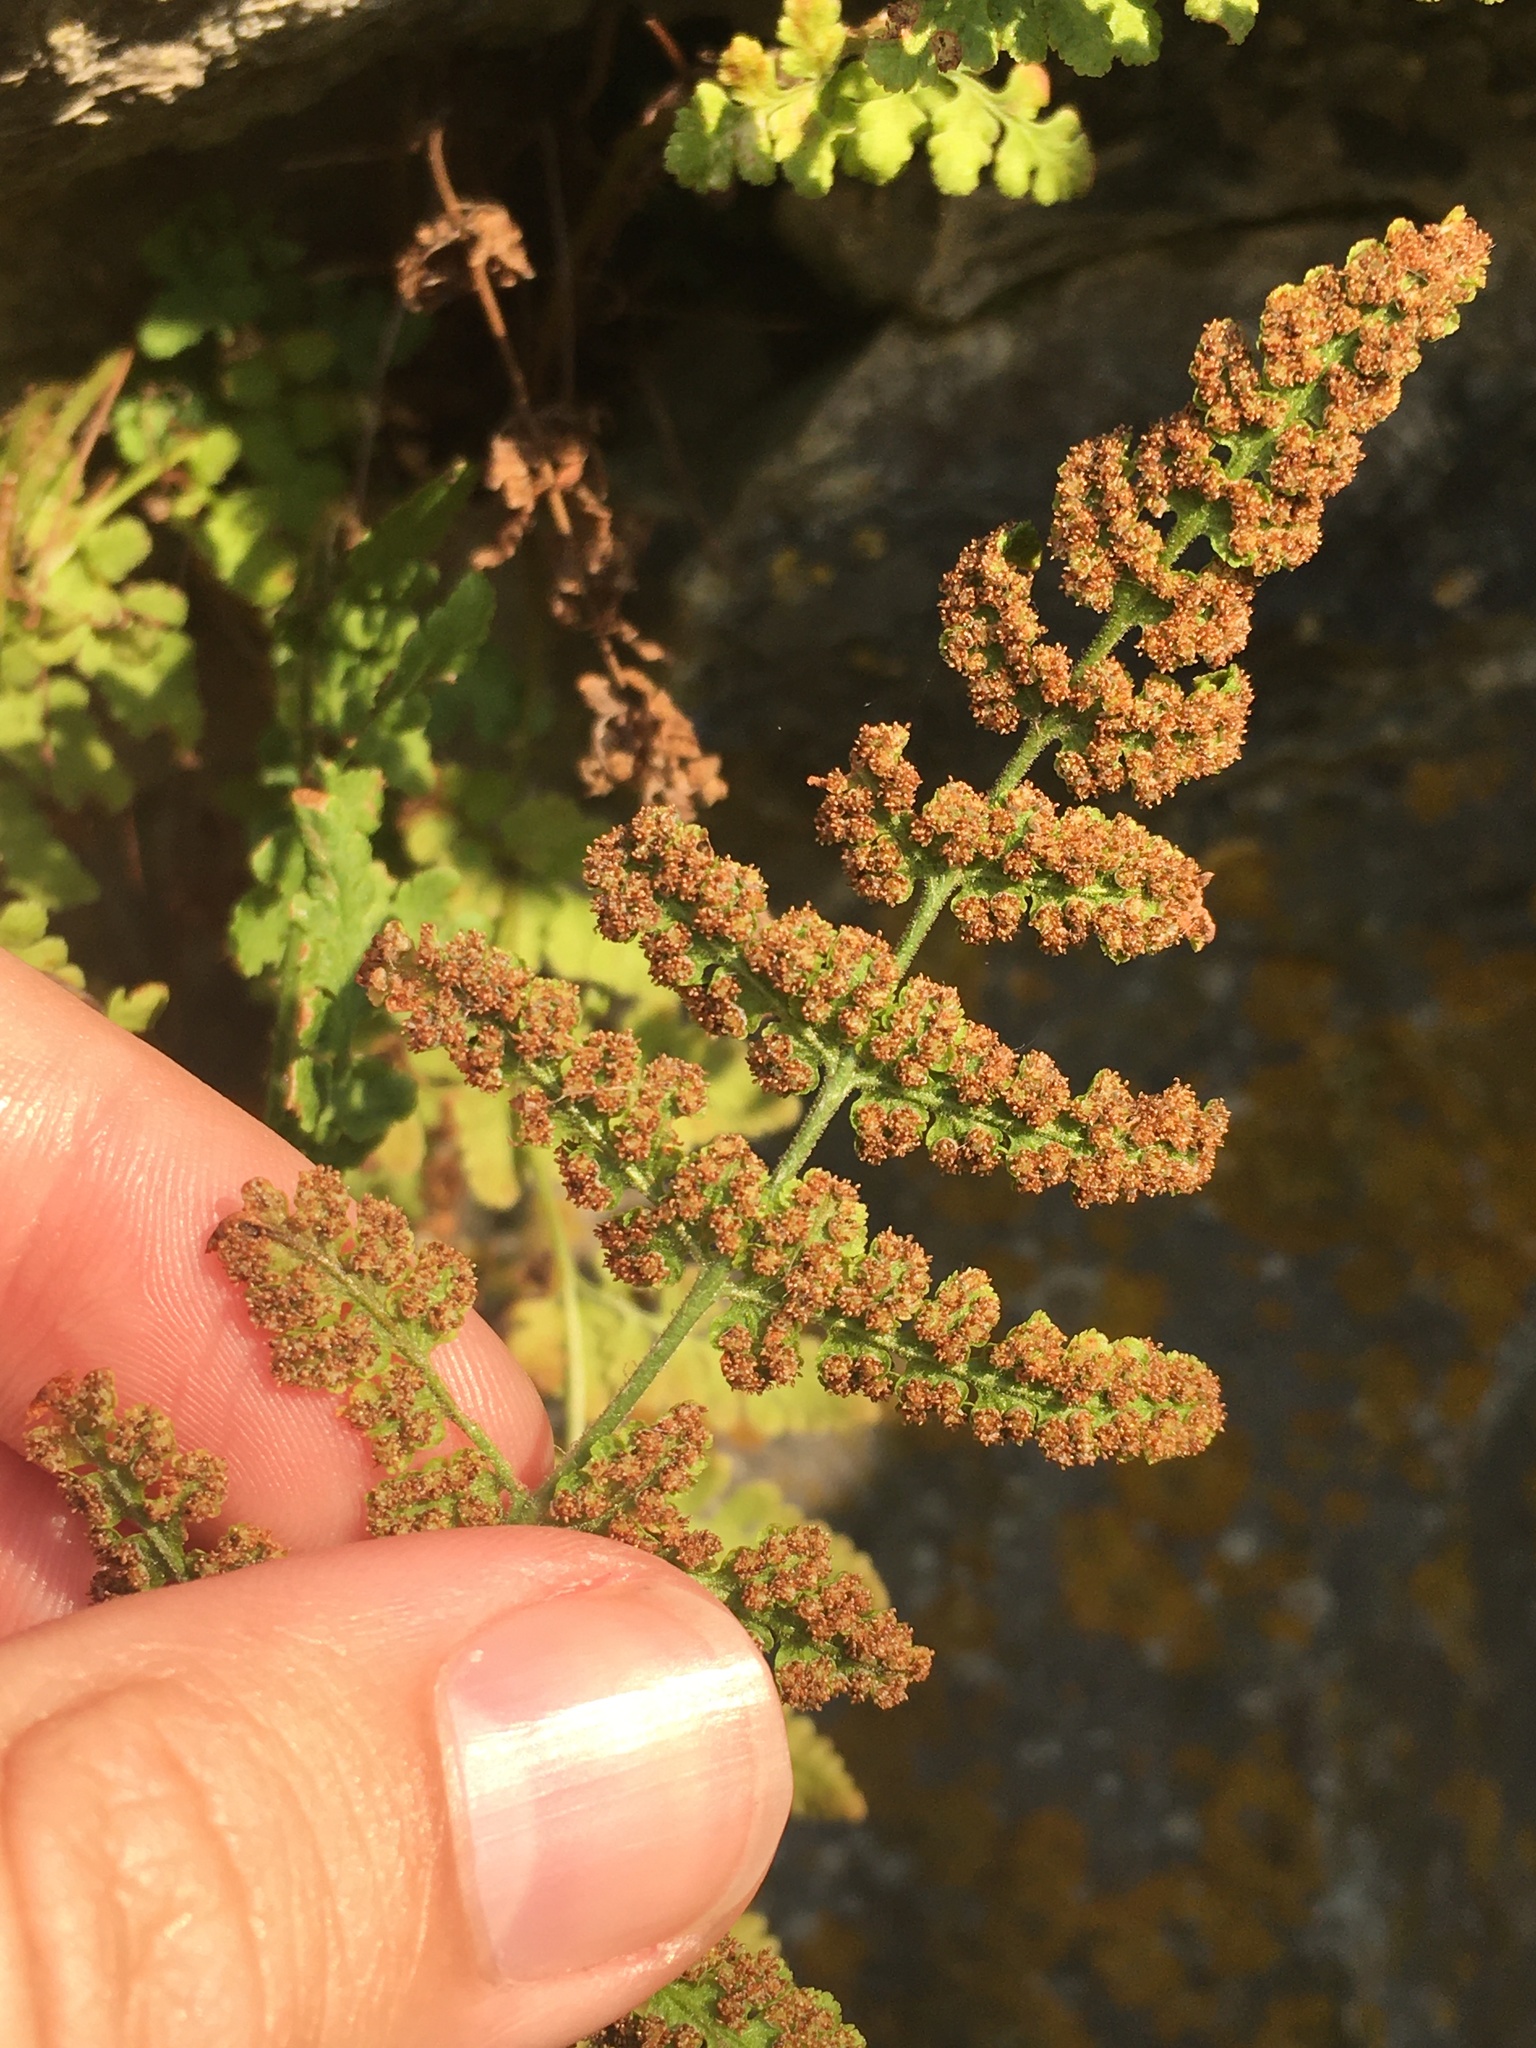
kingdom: Plantae
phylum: Tracheophyta
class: Polypodiopsida
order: Polypodiales
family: Woodsiaceae
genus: Physematium
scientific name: Physematium obtusum
